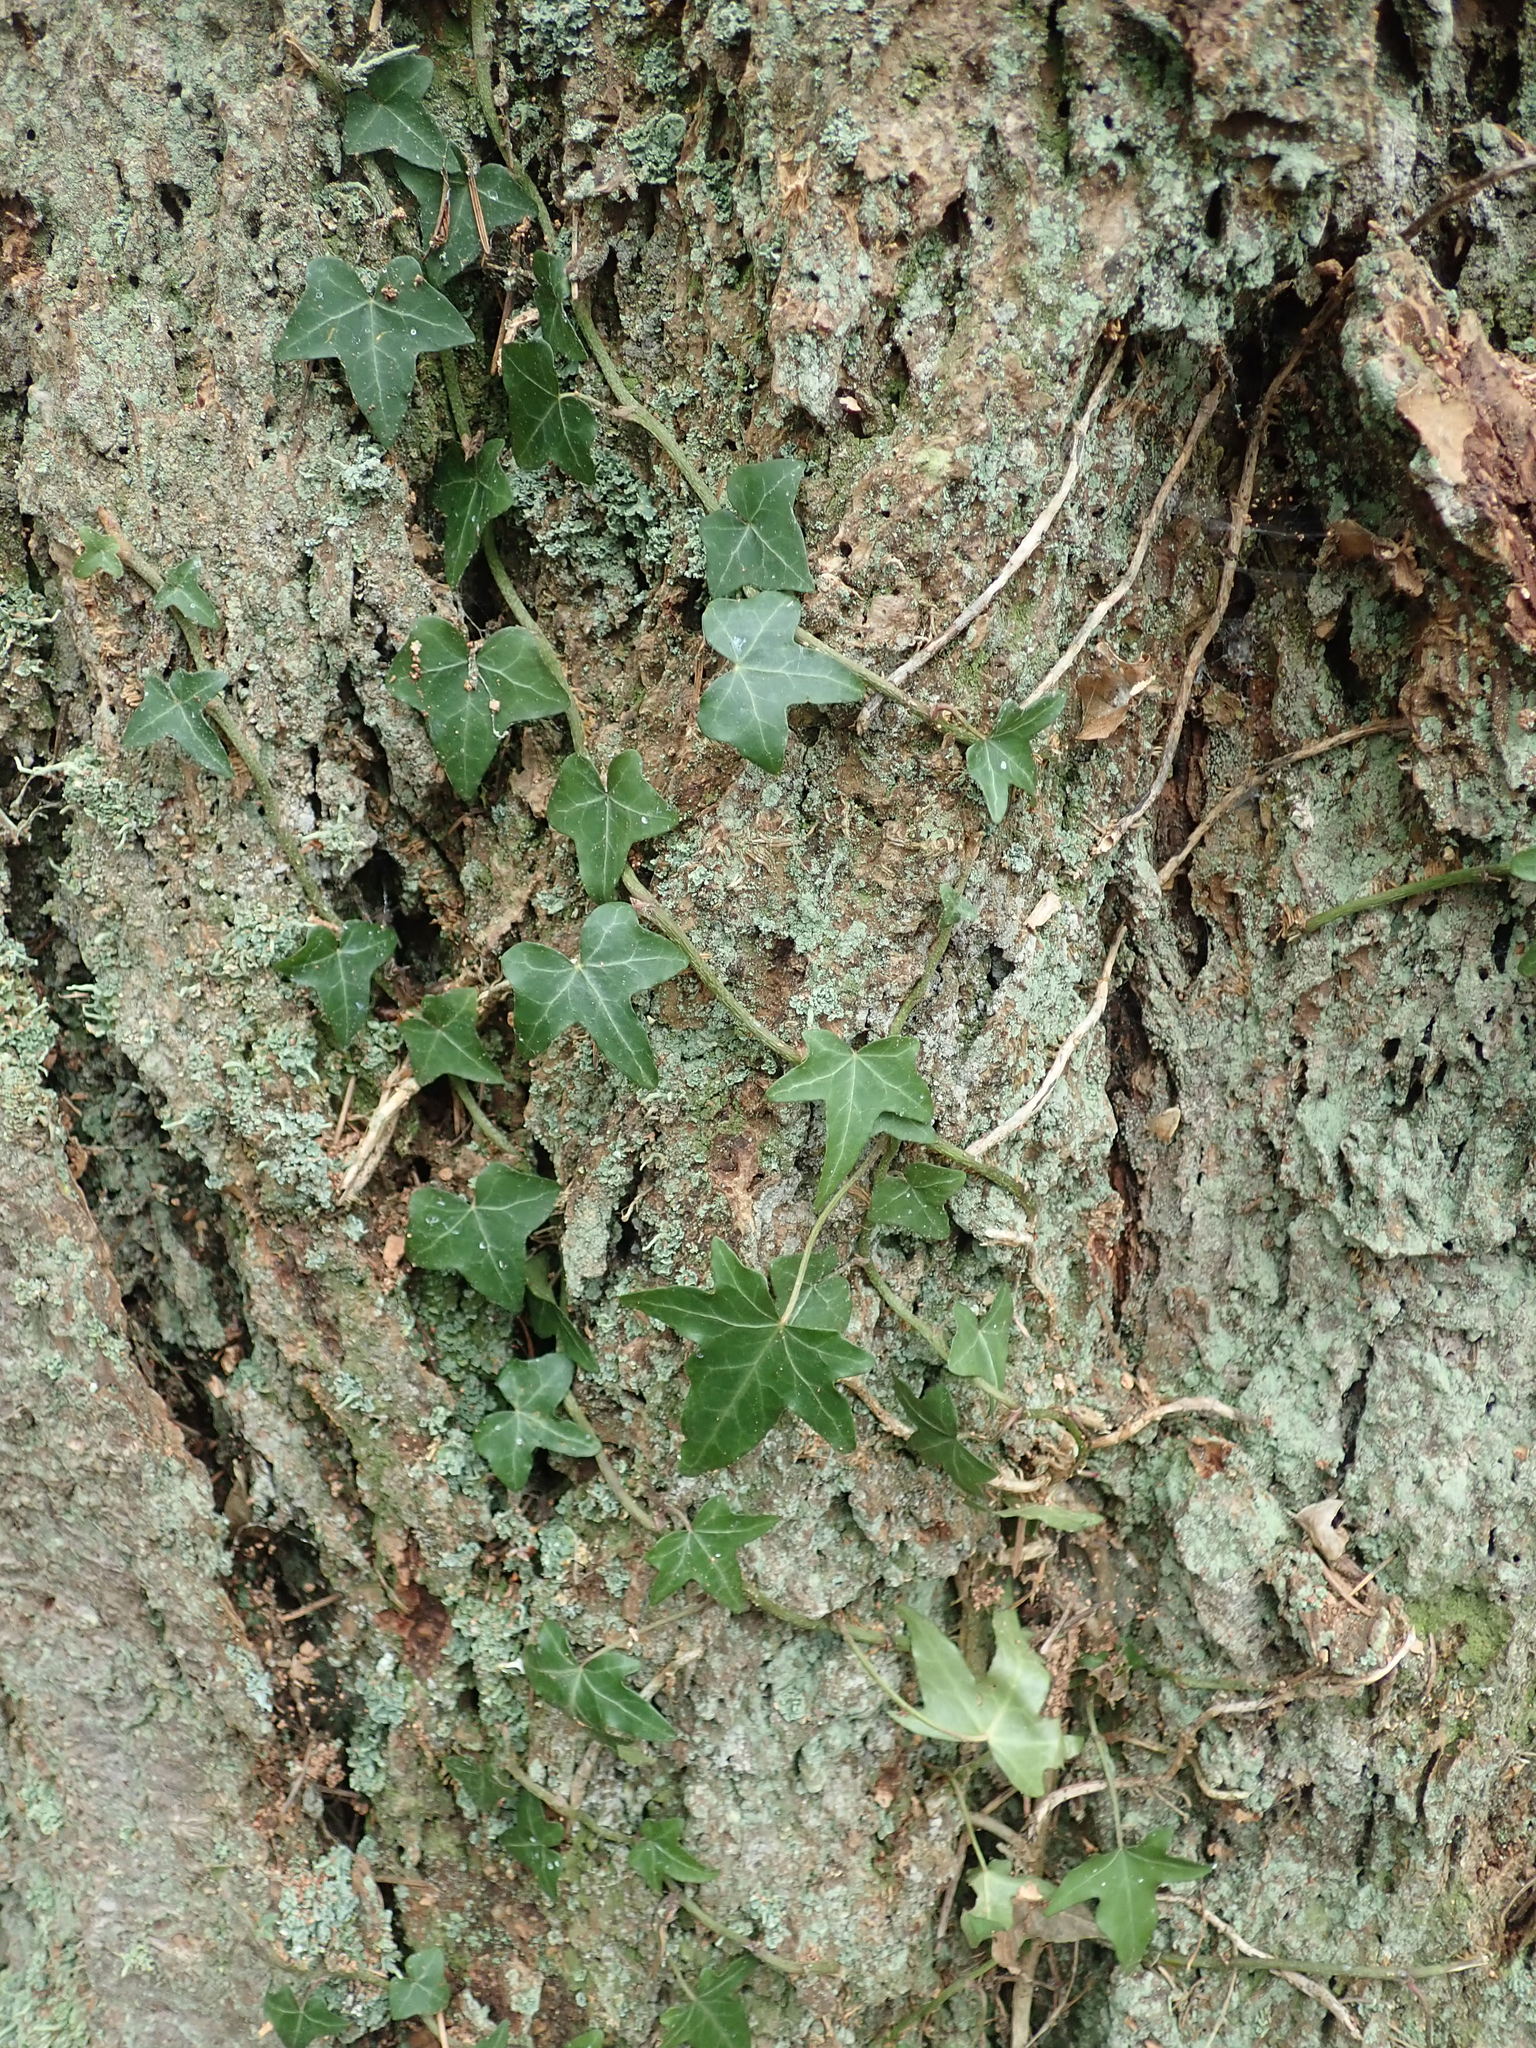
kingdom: Plantae
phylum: Tracheophyta
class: Magnoliopsida
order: Apiales
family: Araliaceae
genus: Hedera
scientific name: Hedera helix
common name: Ivy
